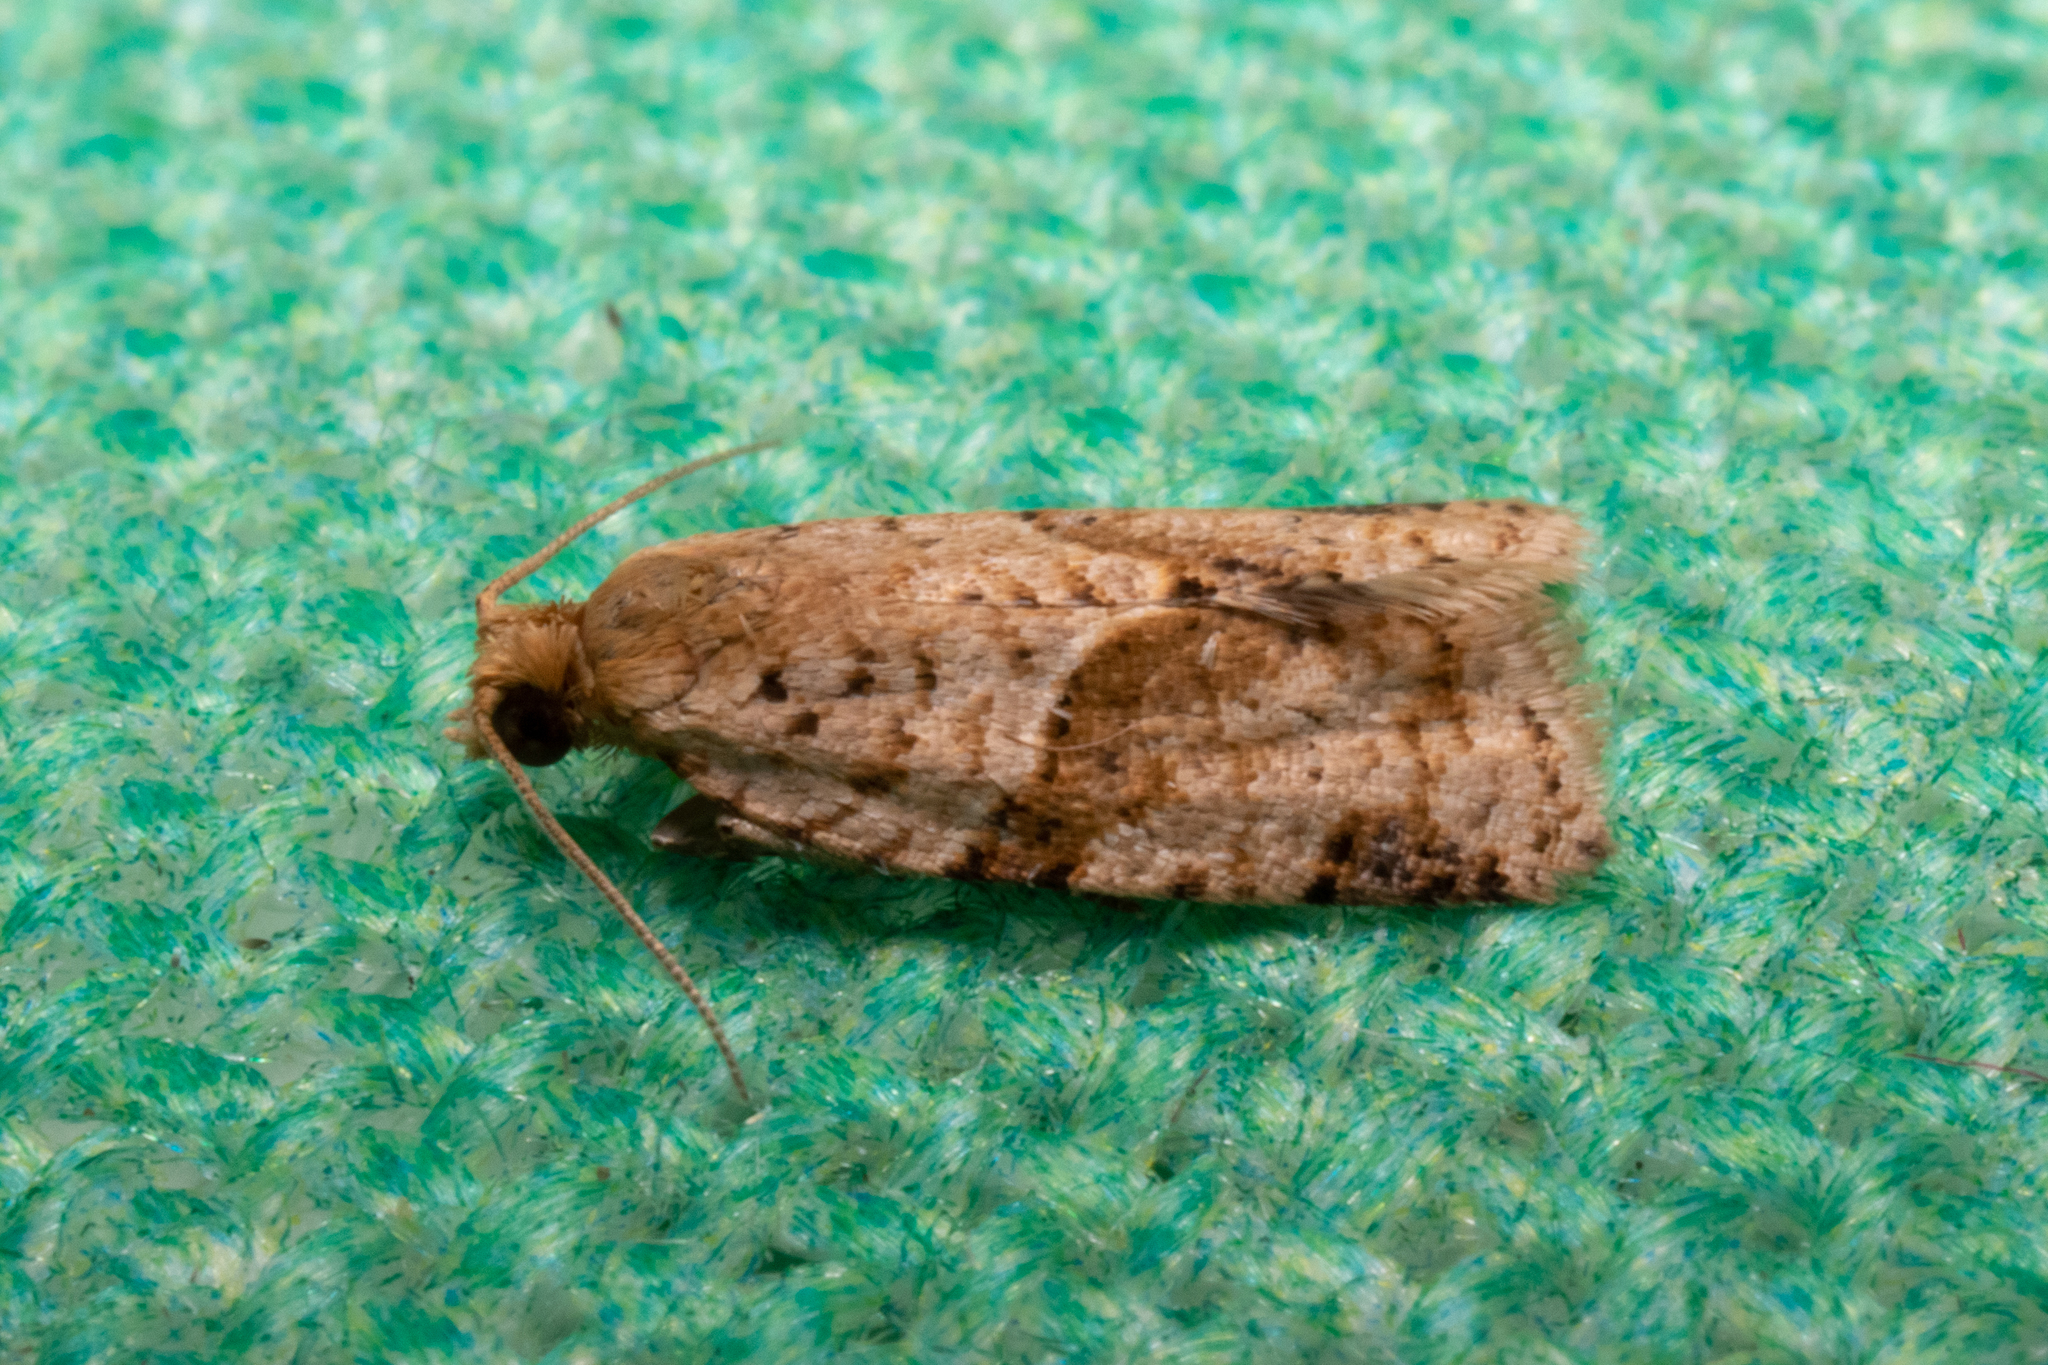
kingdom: Animalia
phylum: Arthropoda
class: Insecta
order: Lepidoptera
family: Tortricidae
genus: Clepsis
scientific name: Clepsis peritana
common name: Garden tortrix
